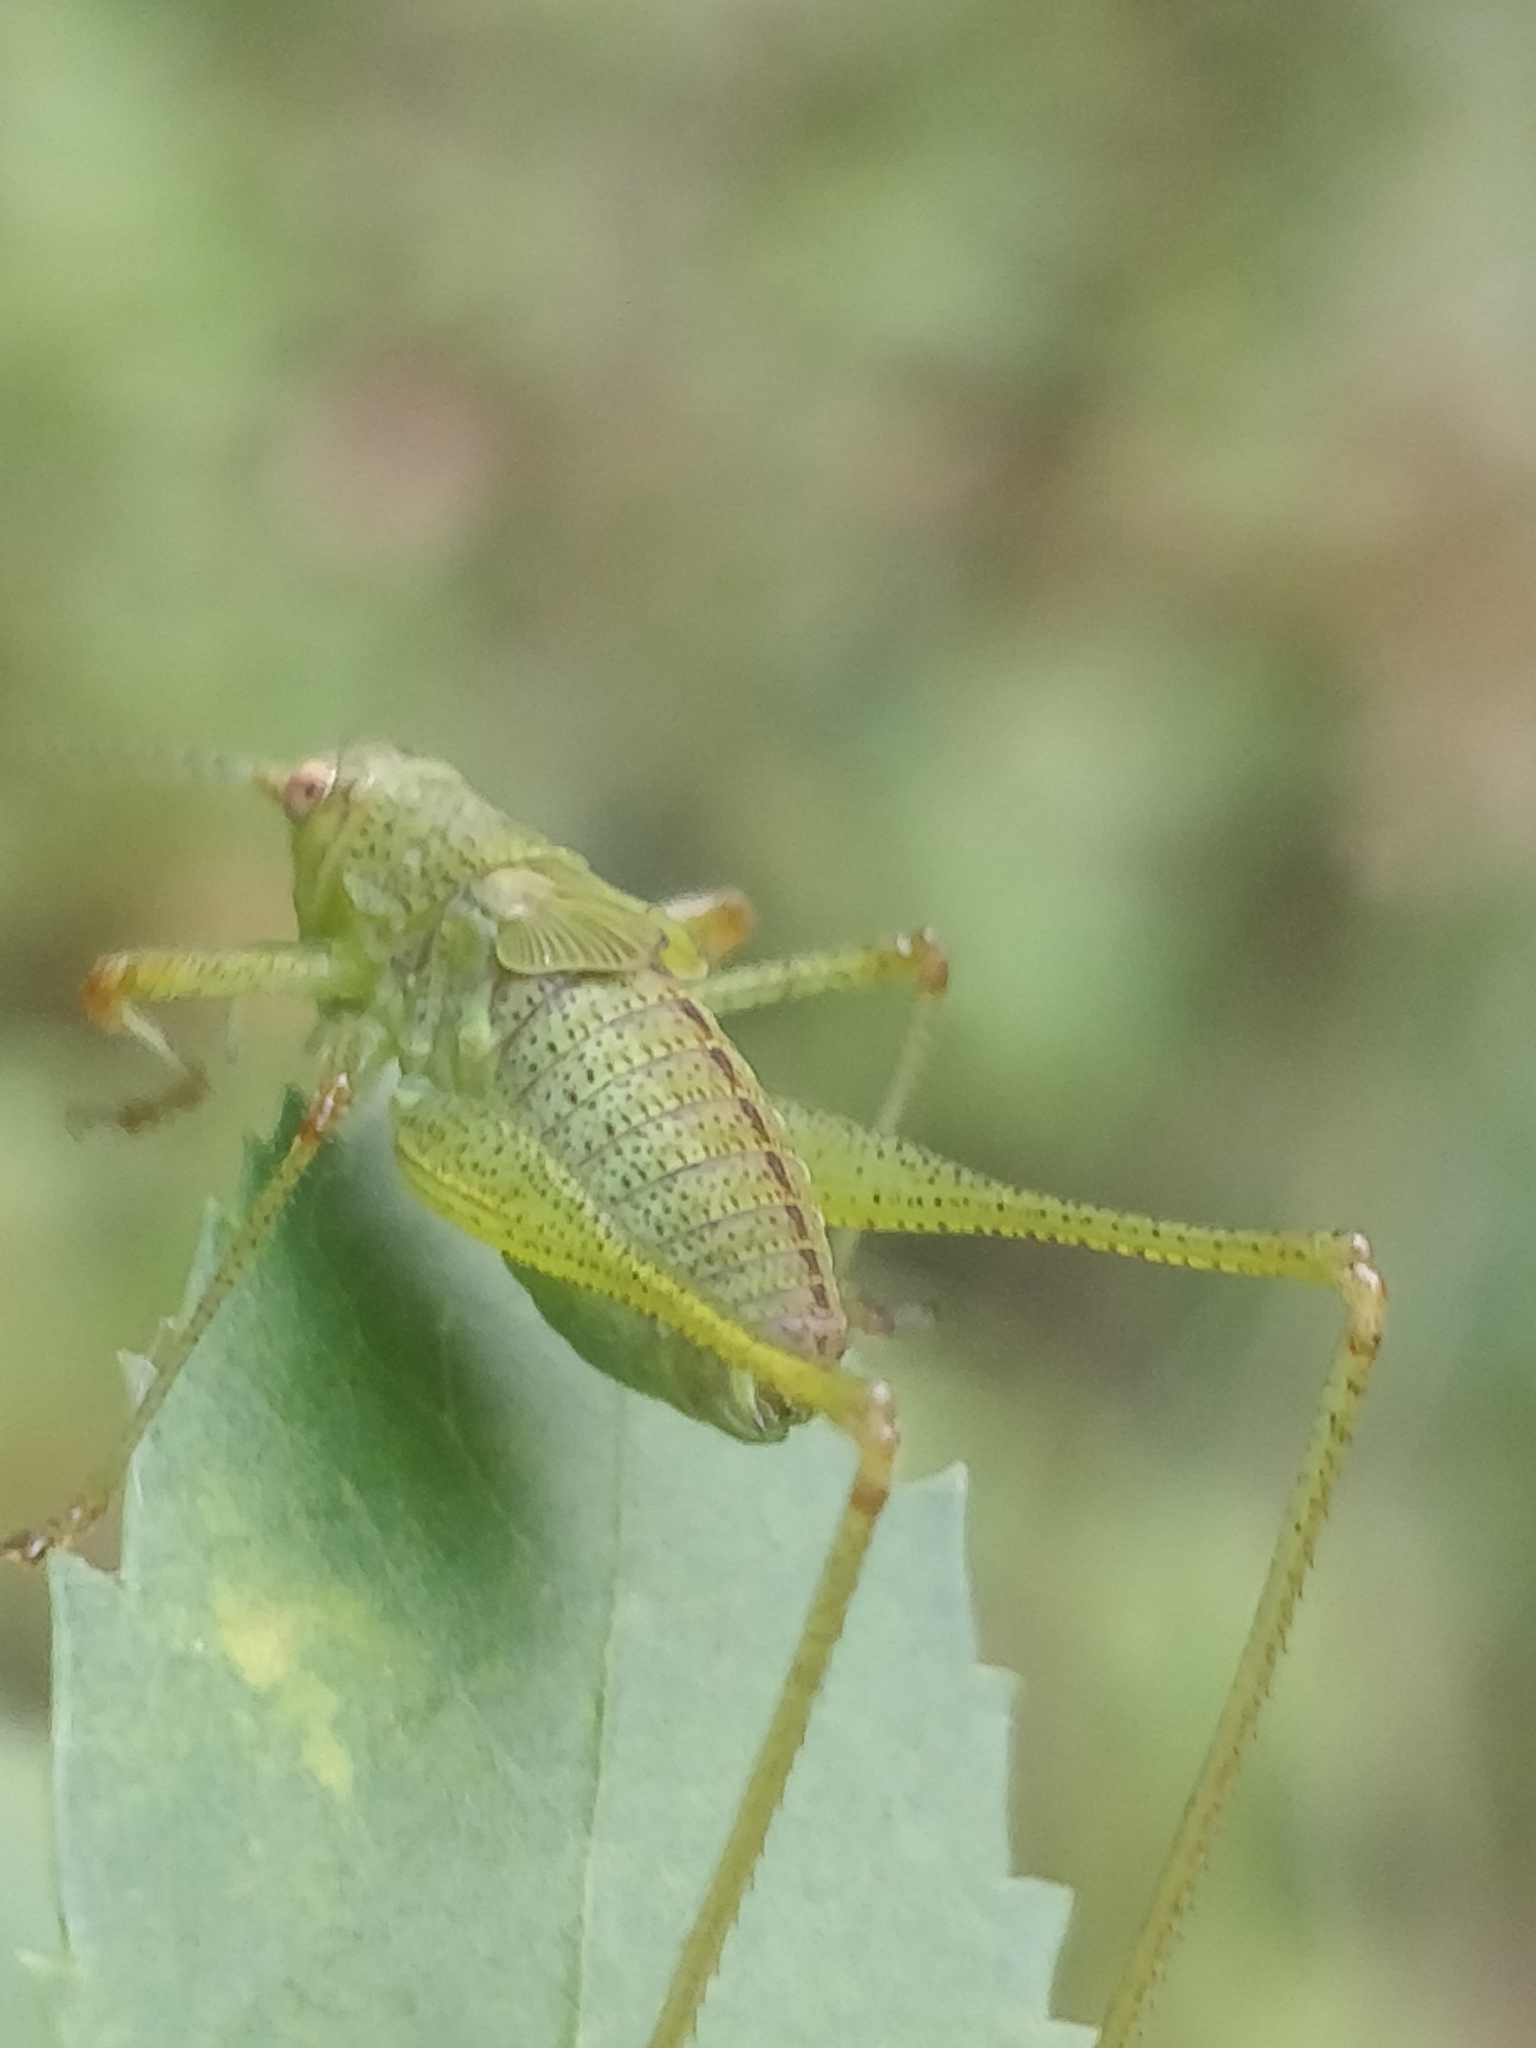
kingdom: Animalia
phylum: Arthropoda
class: Insecta
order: Orthoptera
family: Tettigoniidae
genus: Phaneroptera
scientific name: Phaneroptera nana
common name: Southern sickle bush-cricket
